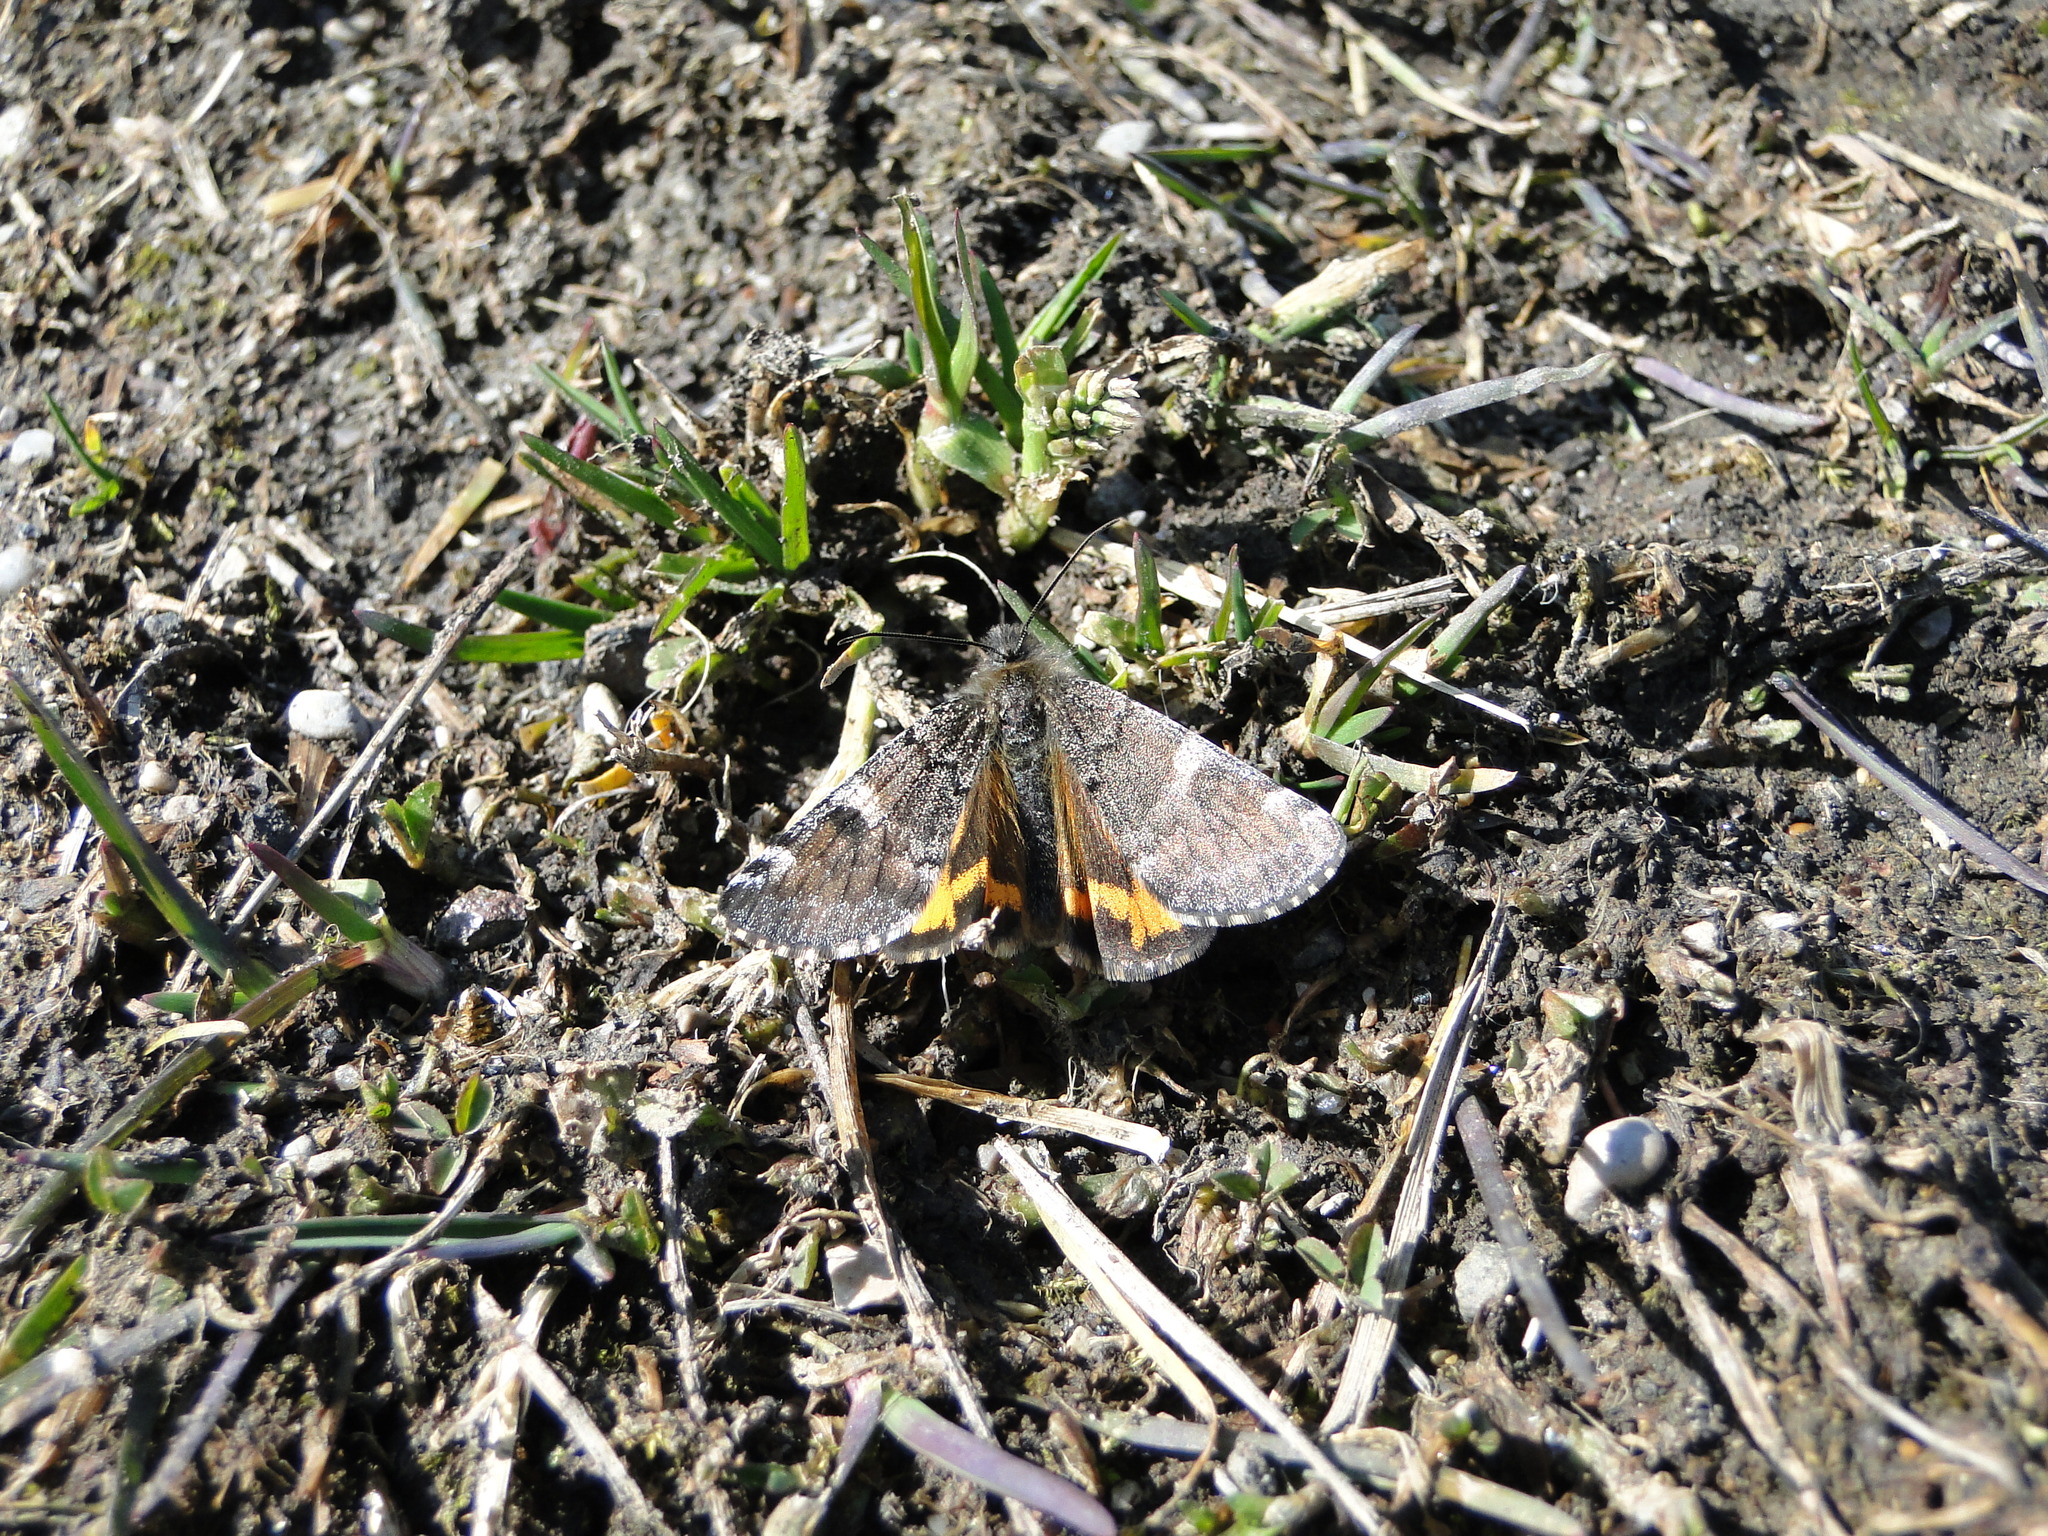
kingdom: Animalia
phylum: Arthropoda
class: Insecta
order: Lepidoptera
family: Geometridae
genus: Archiearis
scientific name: Archiearis parthenias
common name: Orange underwing
